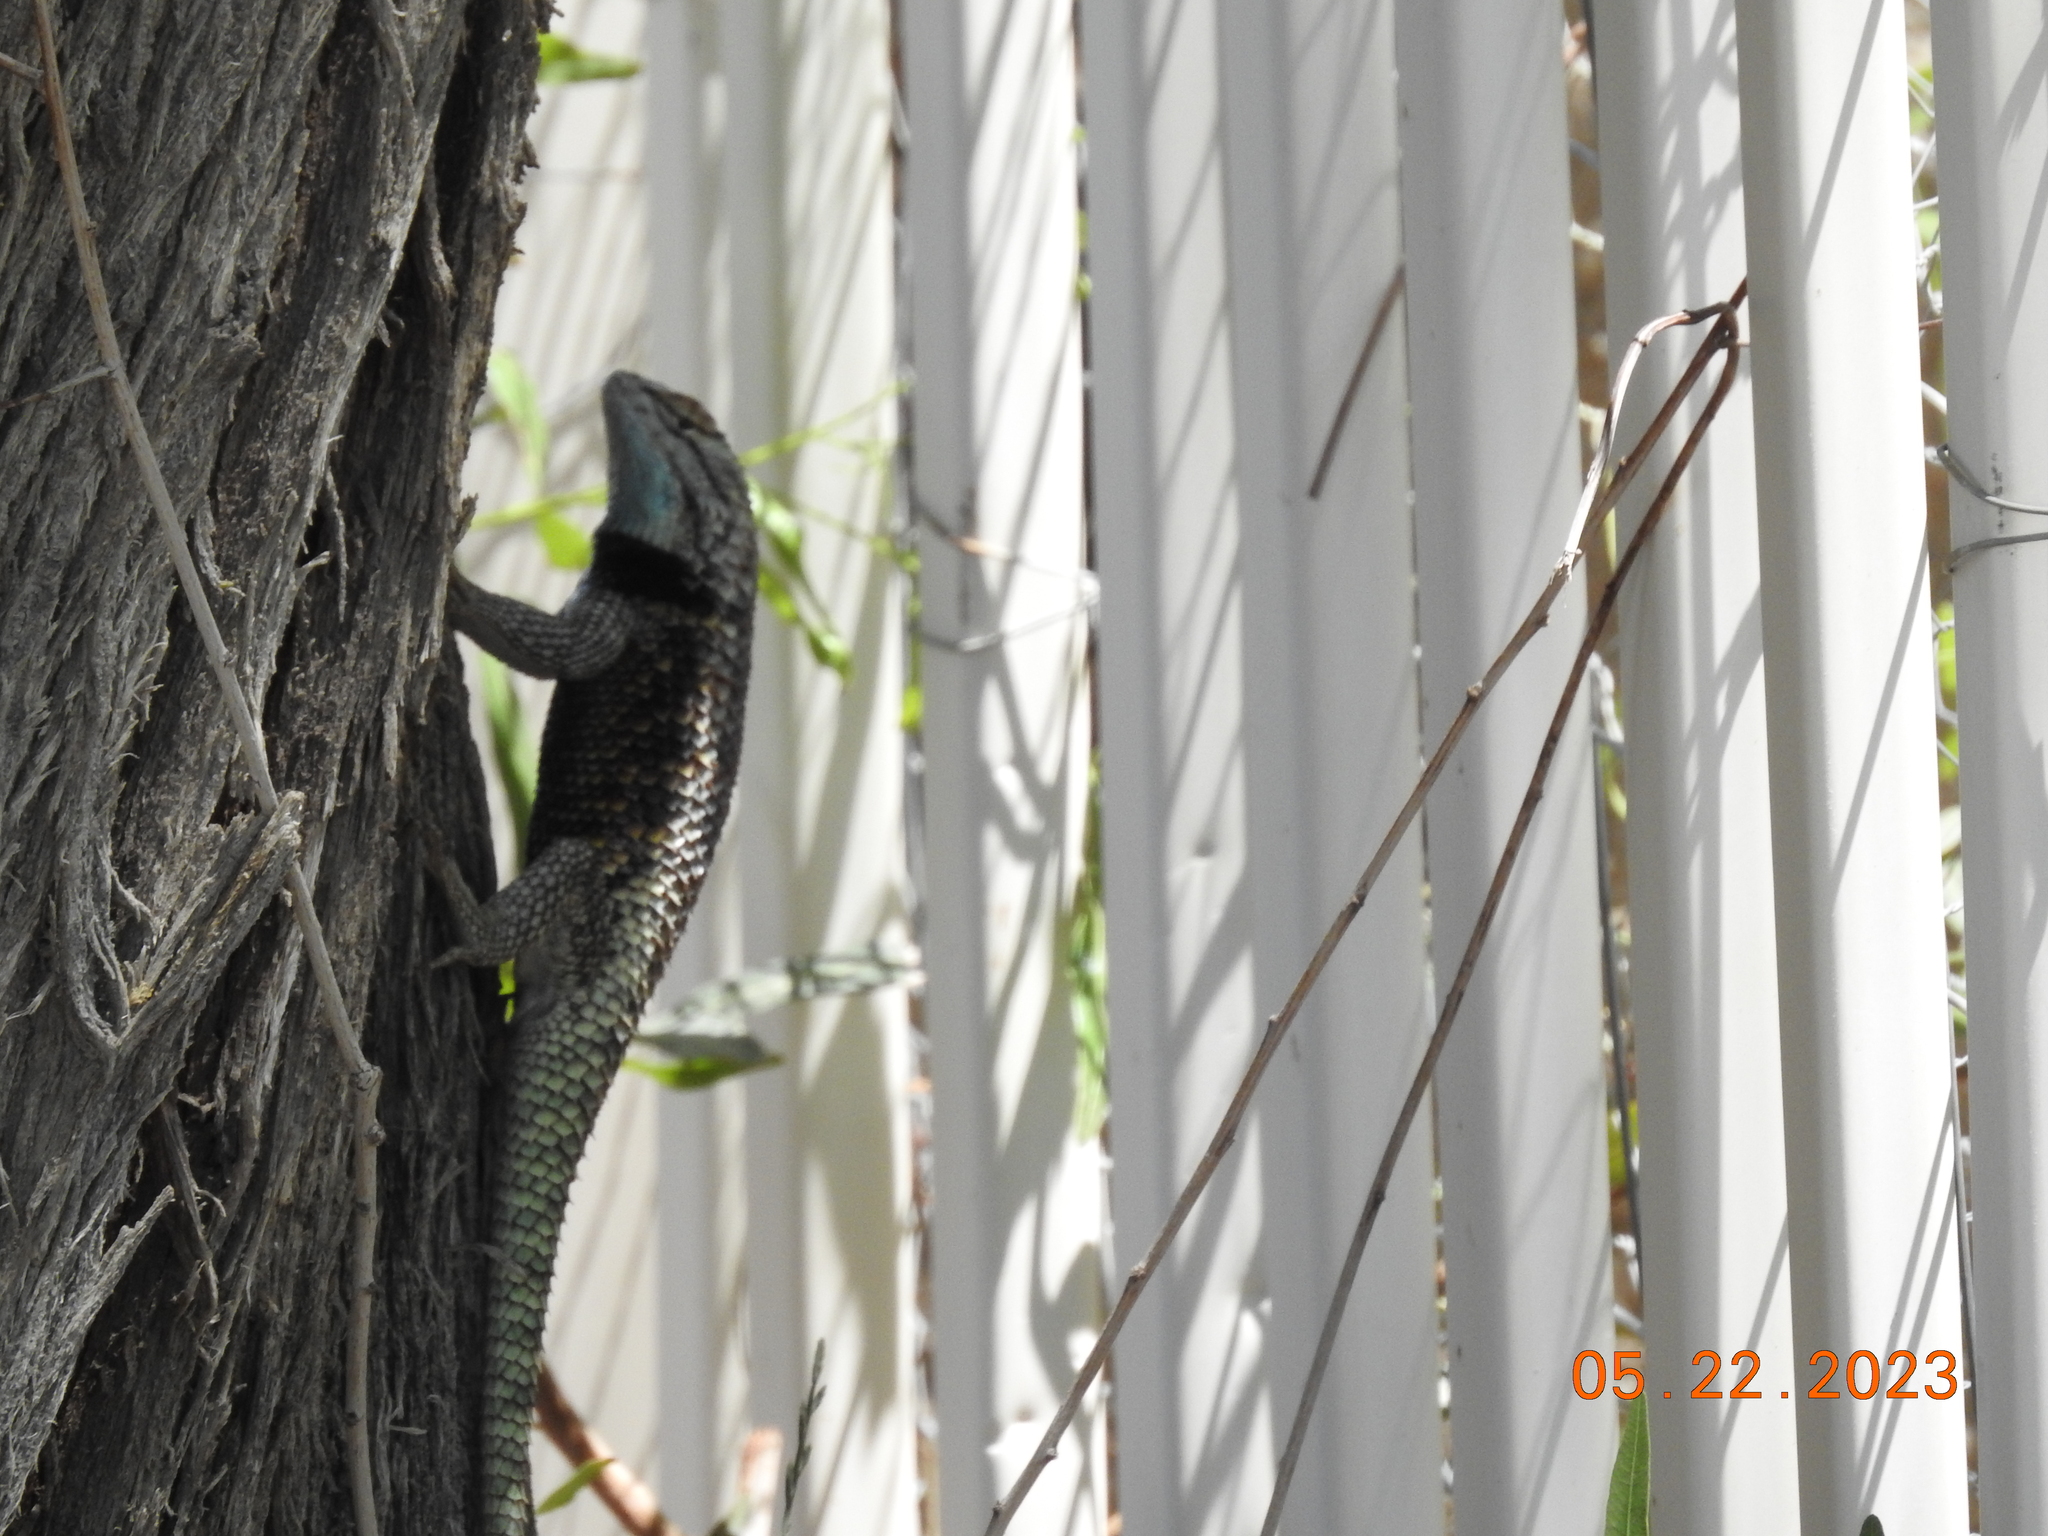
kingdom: Animalia
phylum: Chordata
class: Squamata
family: Phrynosomatidae
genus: Sceloporus
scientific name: Sceloporus magister
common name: Desert spiny lizard
